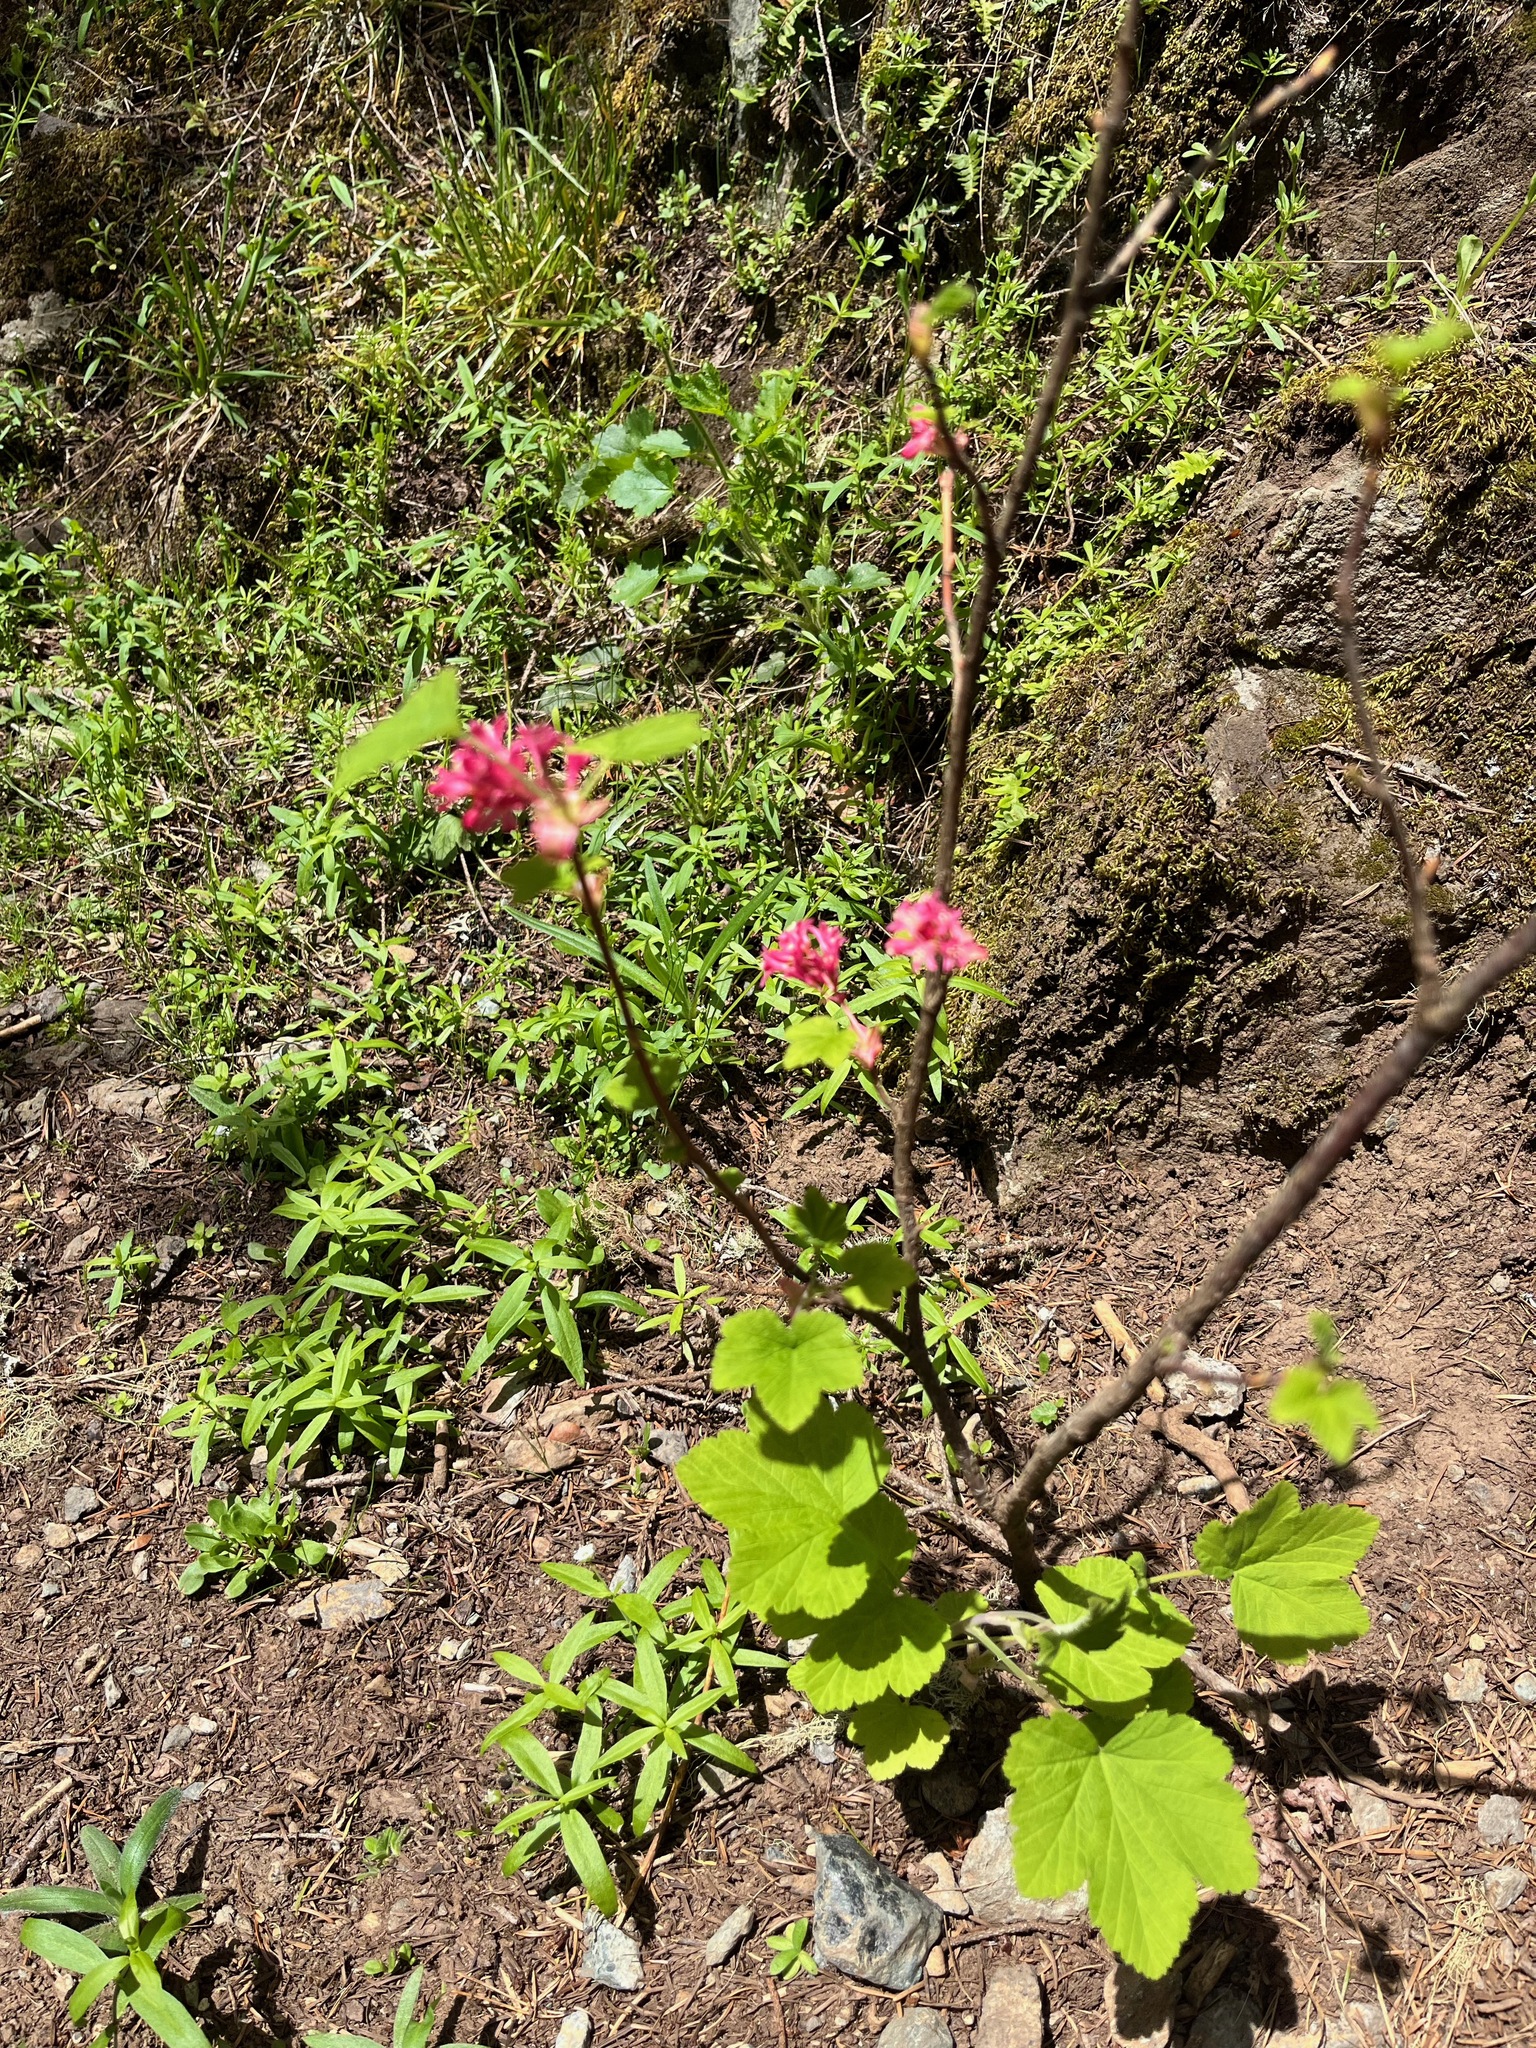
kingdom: Plantae
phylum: Tracheophyta
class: Magnoliopsida
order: Saxifragales
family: Grossulariaceae
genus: Ribes
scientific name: Ribes sanguineum
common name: Flowering currant
